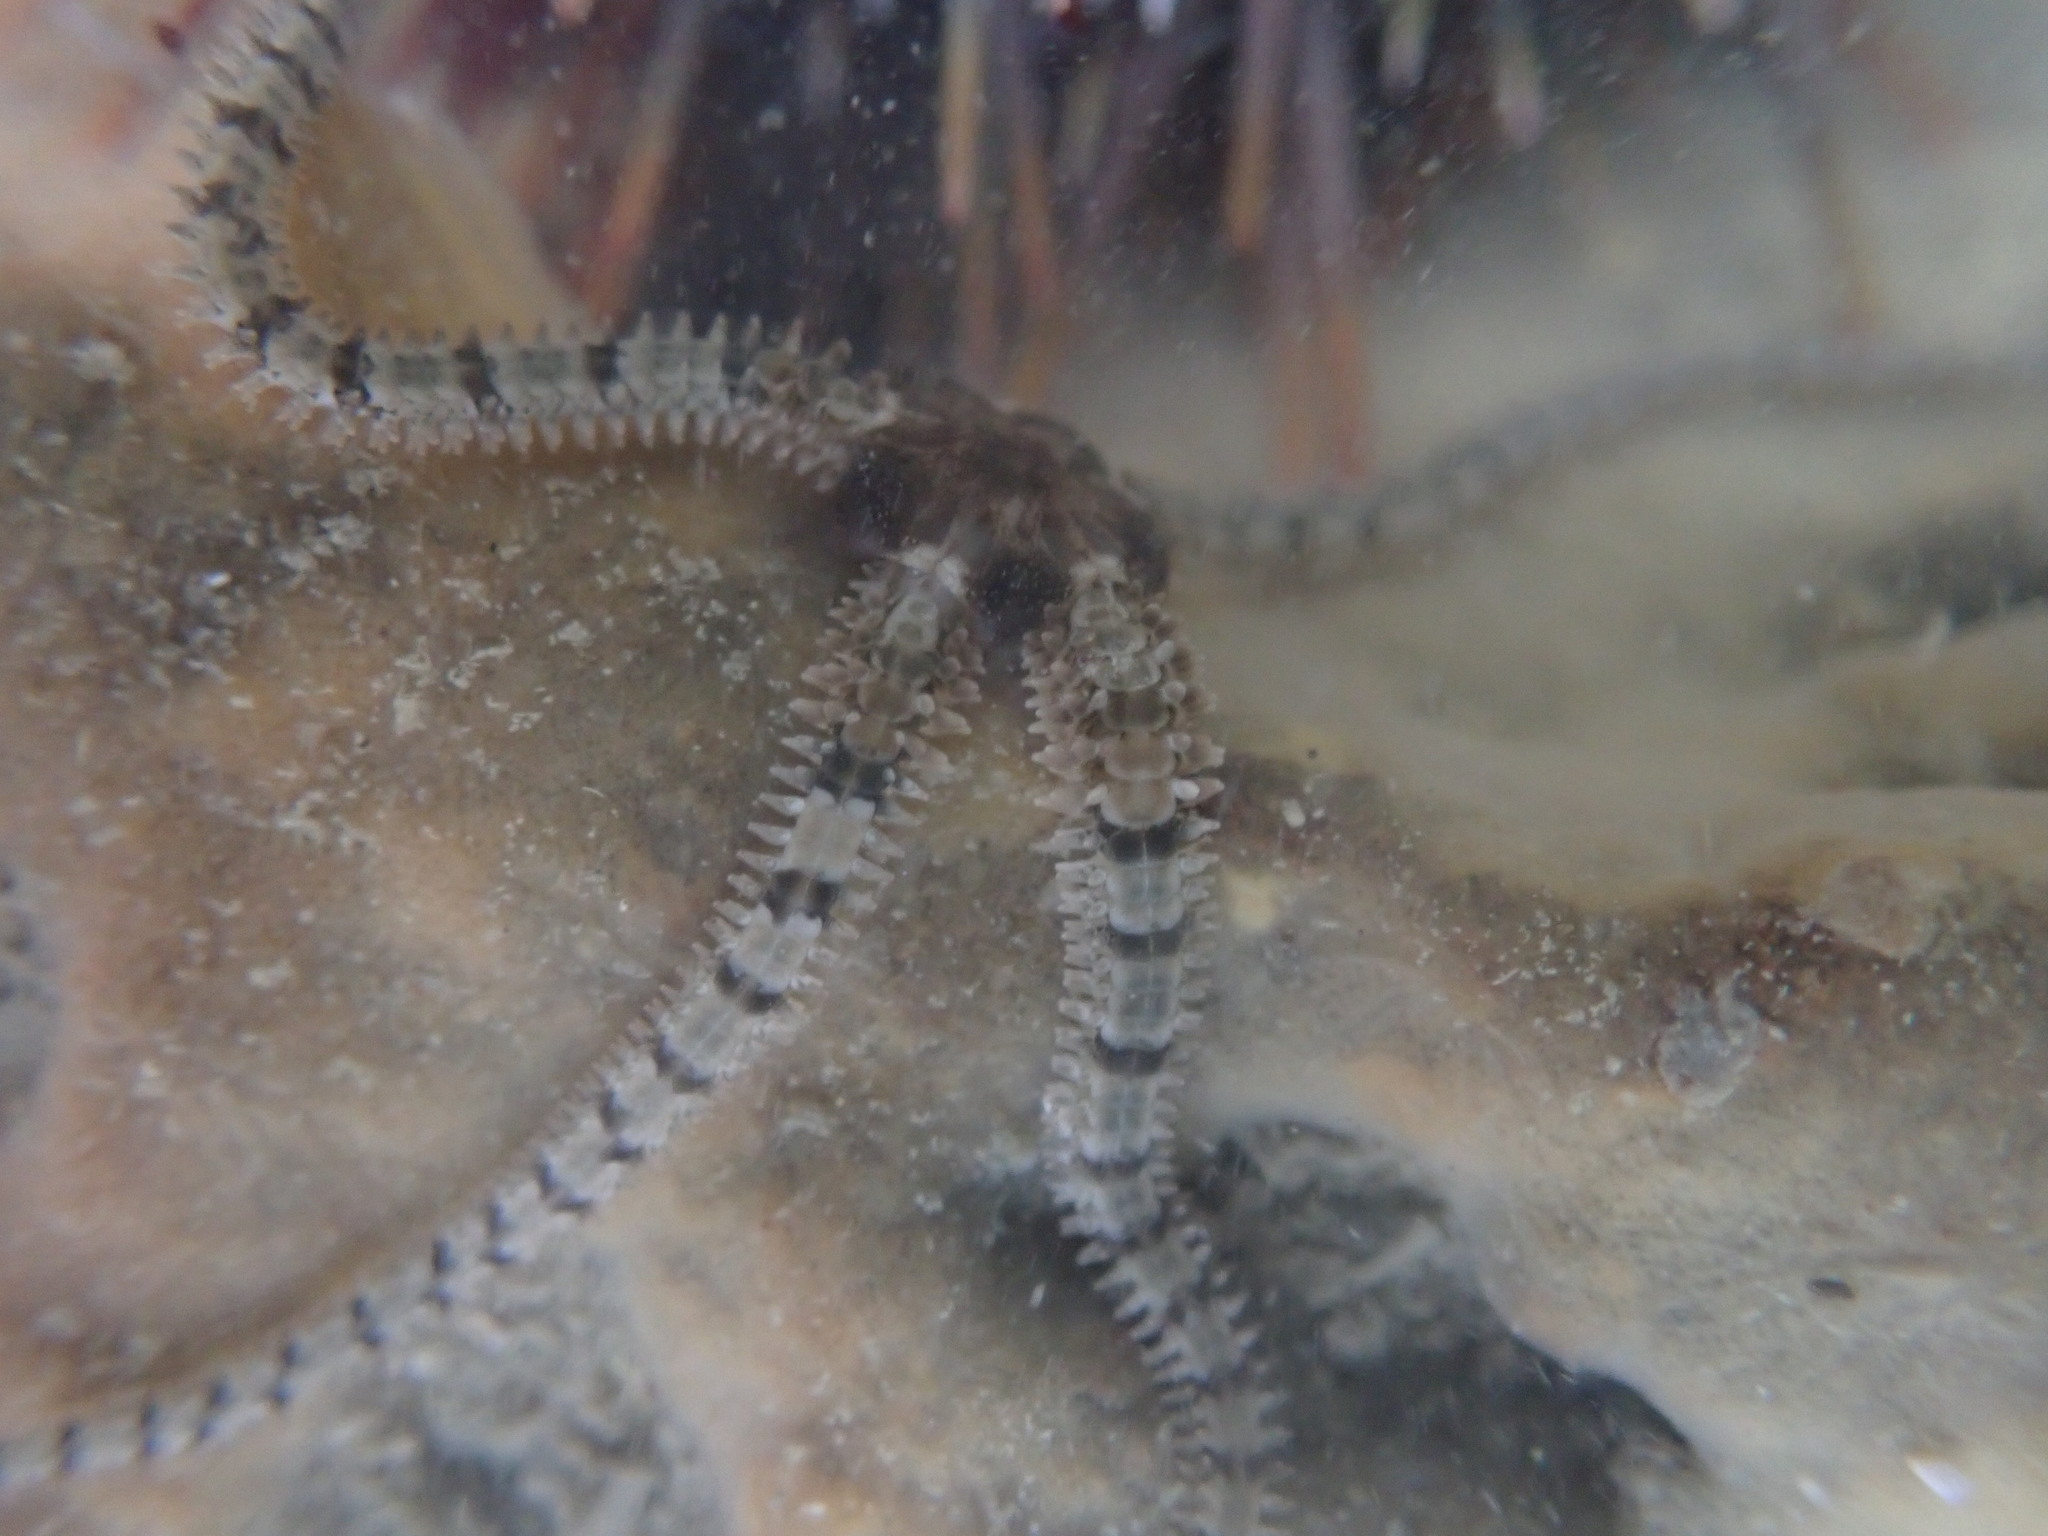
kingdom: Animalia
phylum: Echinodermata
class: Ophiuroidea
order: Amphilepidida
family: Ophiactidae
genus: Ophiactis
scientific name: Ophiactis resiliens
